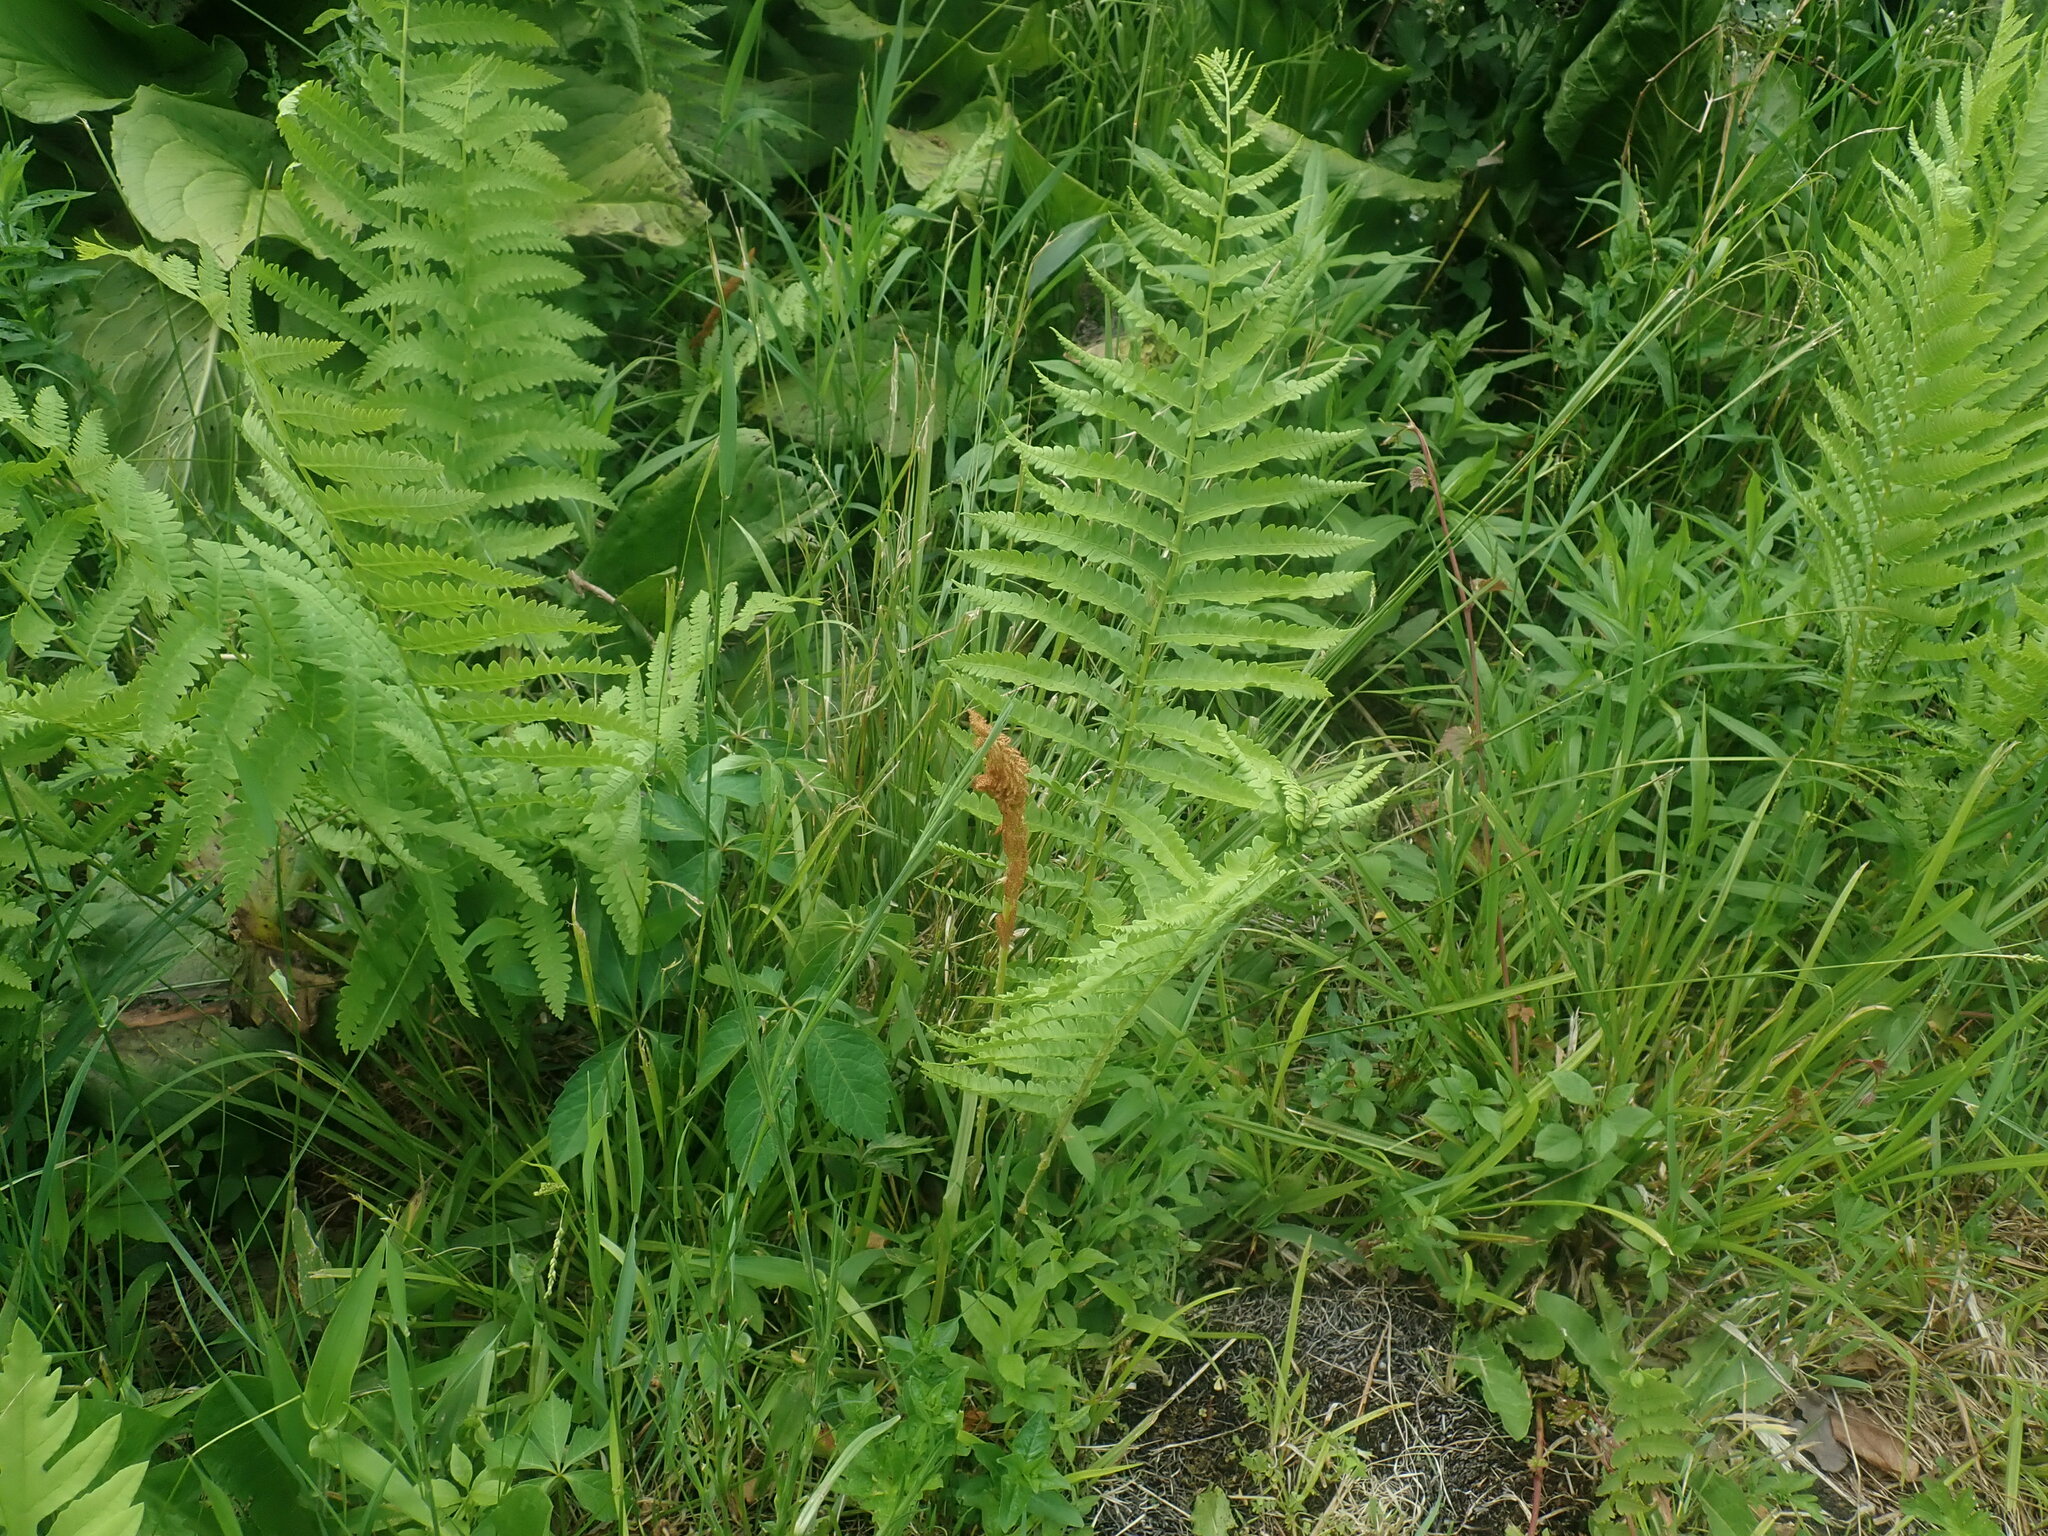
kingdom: Plantae
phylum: Tracheophyta
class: Polypodiopsida
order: Osmundales
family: Osmundaceae
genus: Osmundastrum
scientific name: Osmundastrum cinnamomeum
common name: Cinnamon fern
